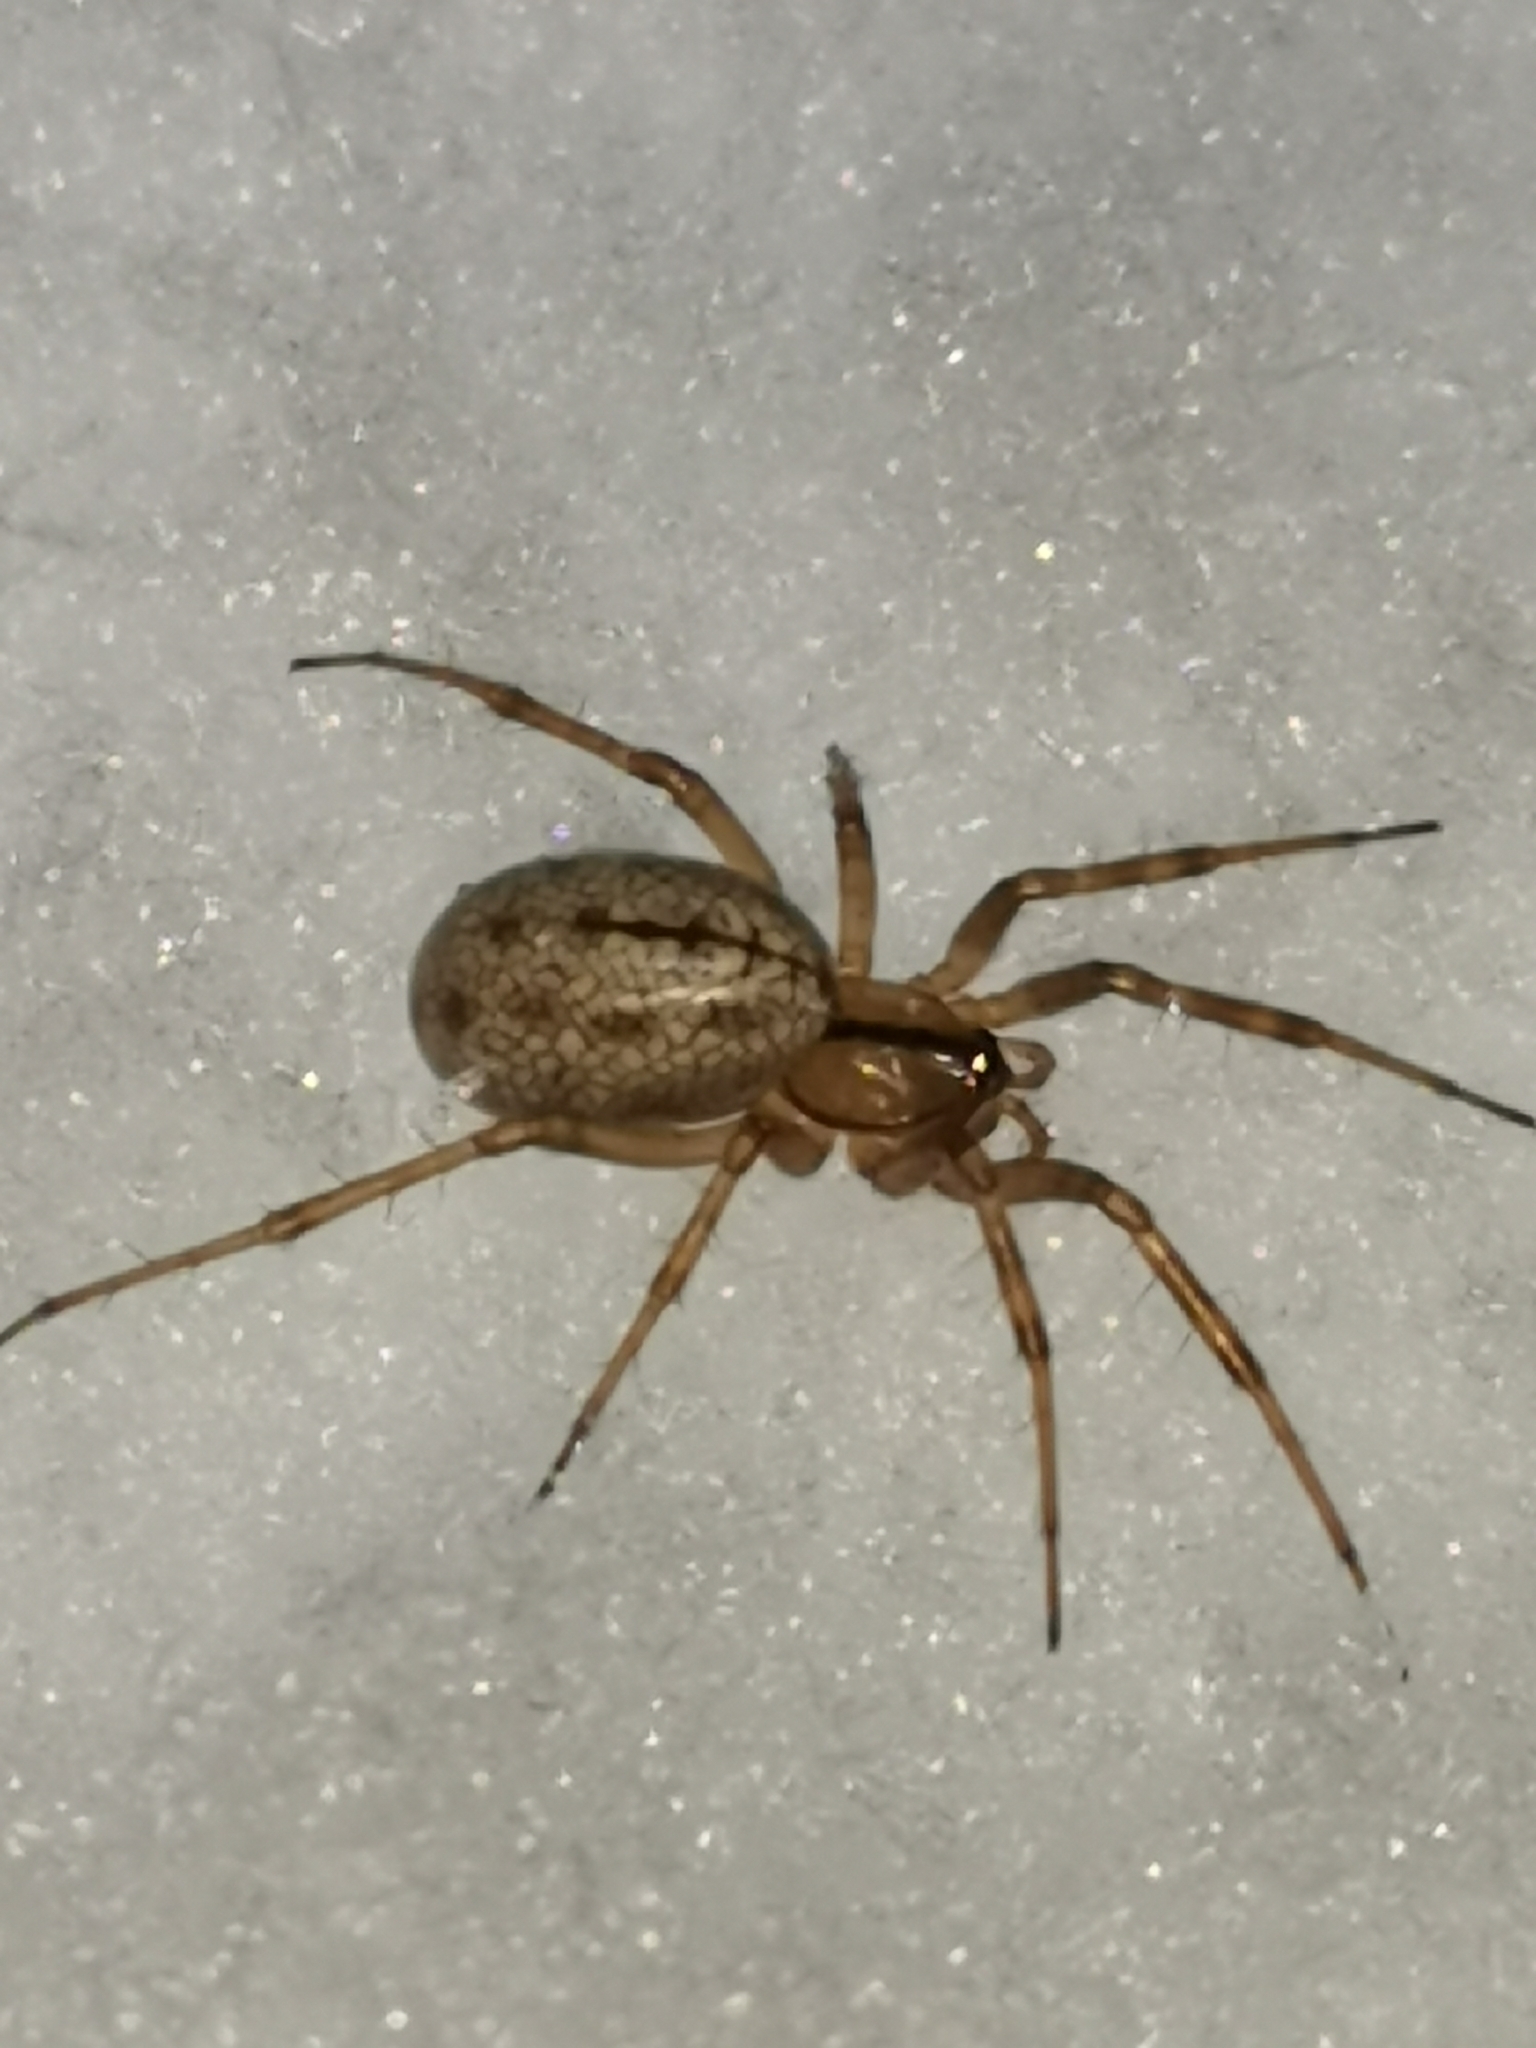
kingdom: Animalia
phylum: Arthropoda
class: Arachnida
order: Araneae
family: Linyphiidae
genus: Stemonyphantes
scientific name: Stemonyphantes lineatus
